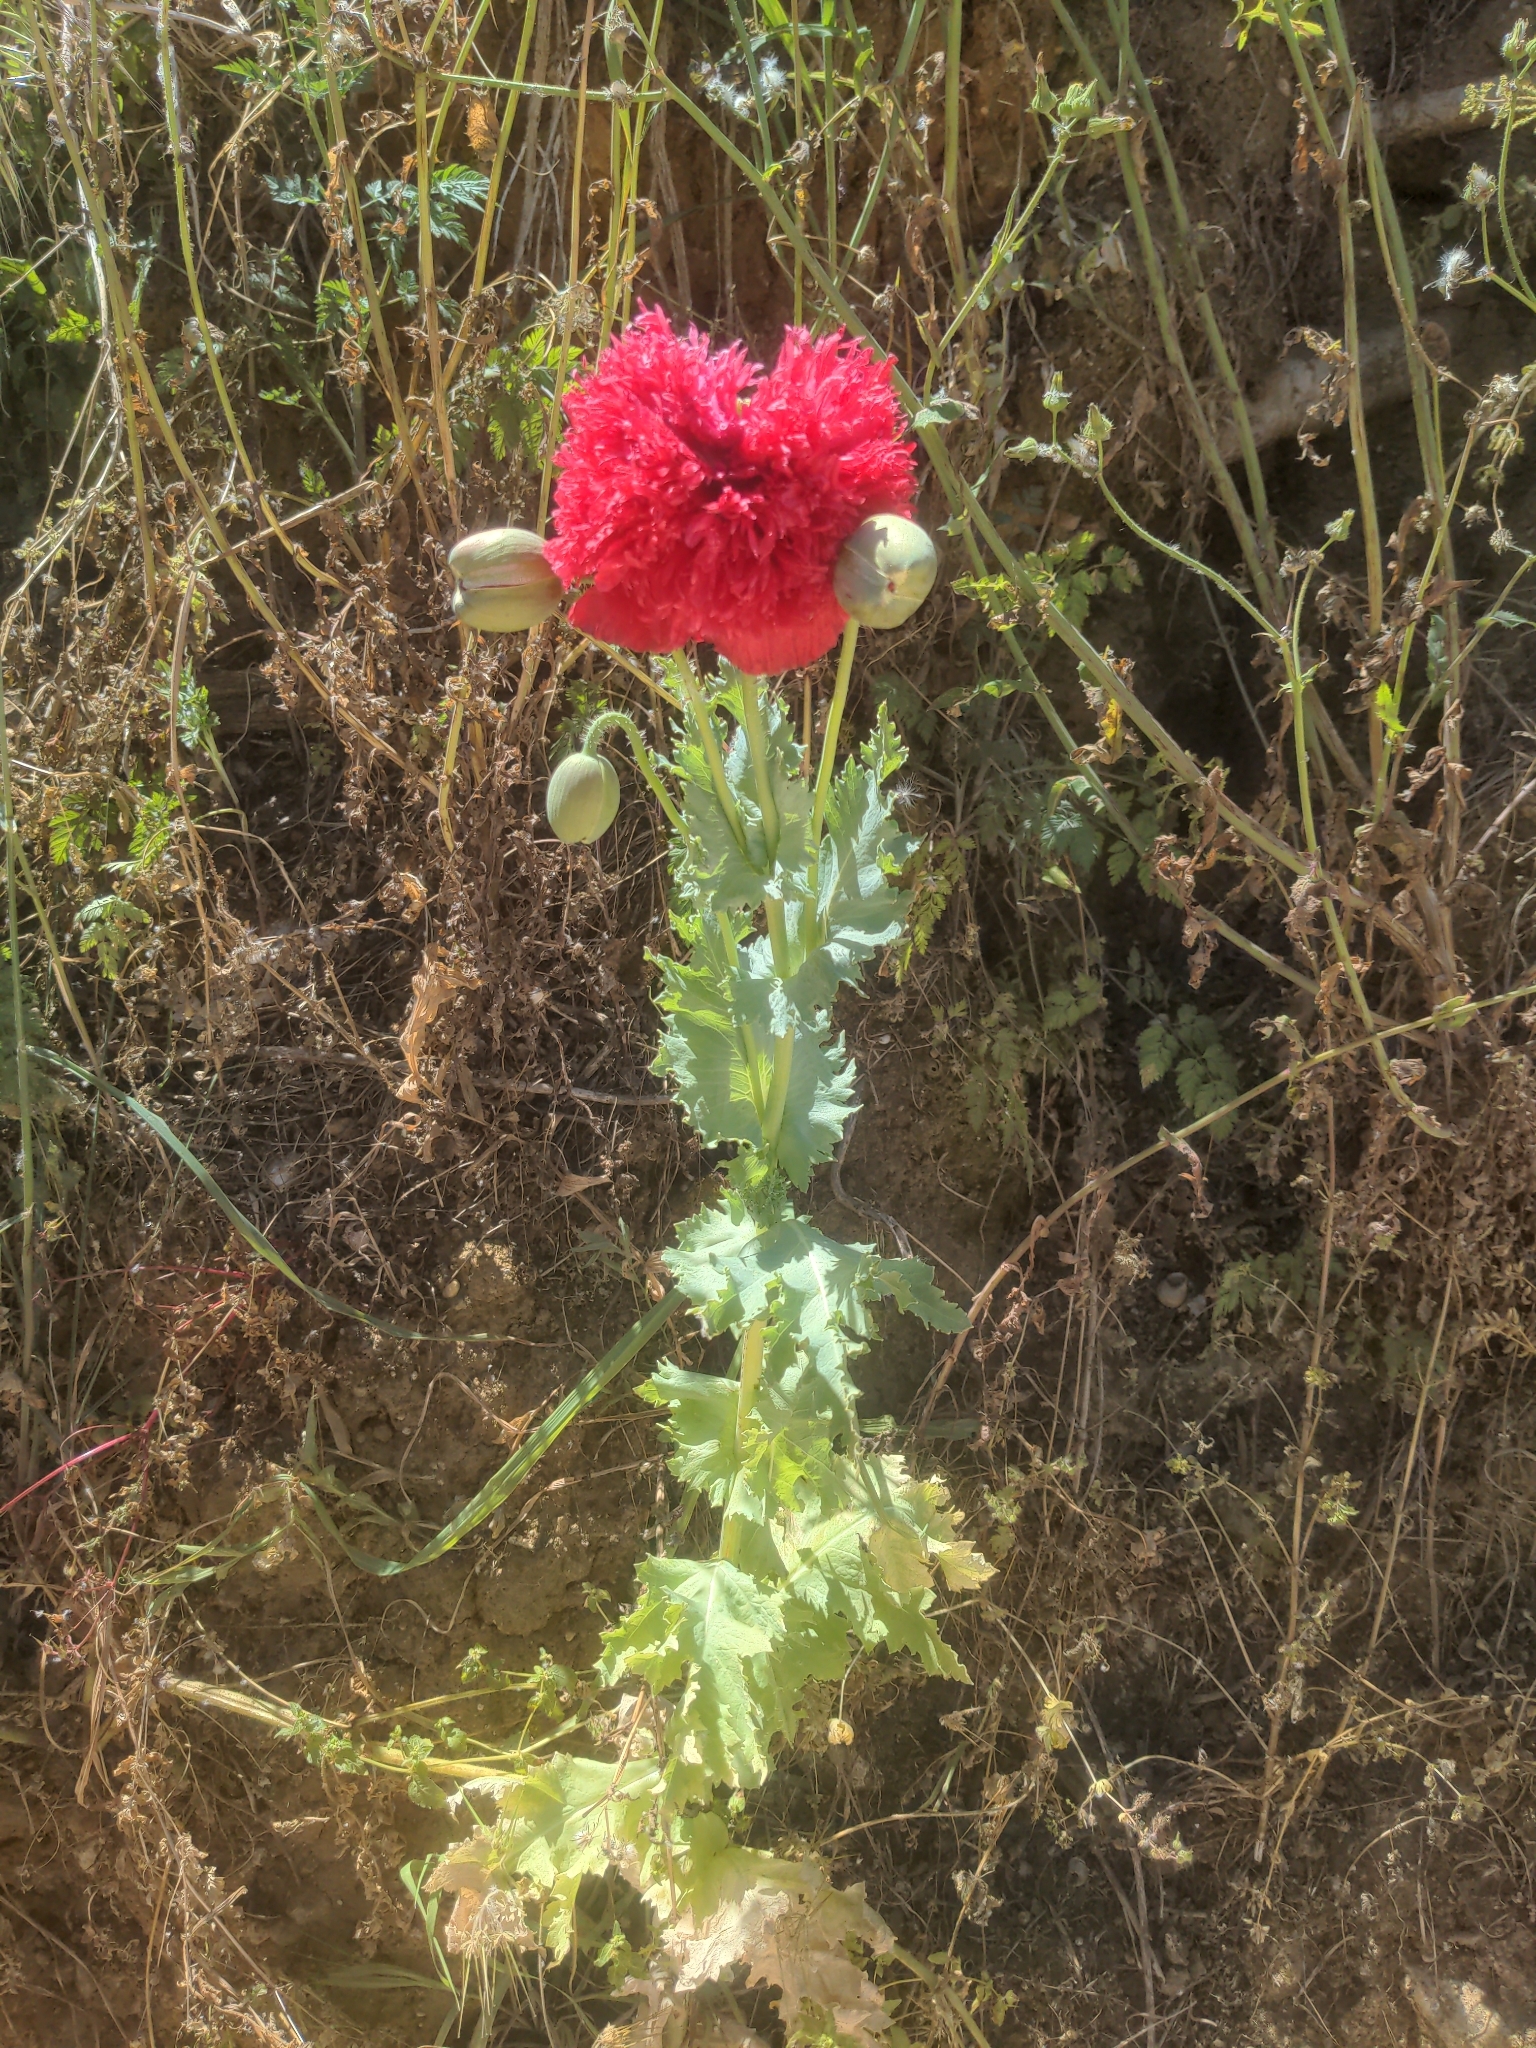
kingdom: Plantae
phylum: Tracheophyta
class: Magnoliopsida
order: Ranunculales
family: Papaveraceae
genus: Papaver
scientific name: Papaver somniferum
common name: Opium poppy
